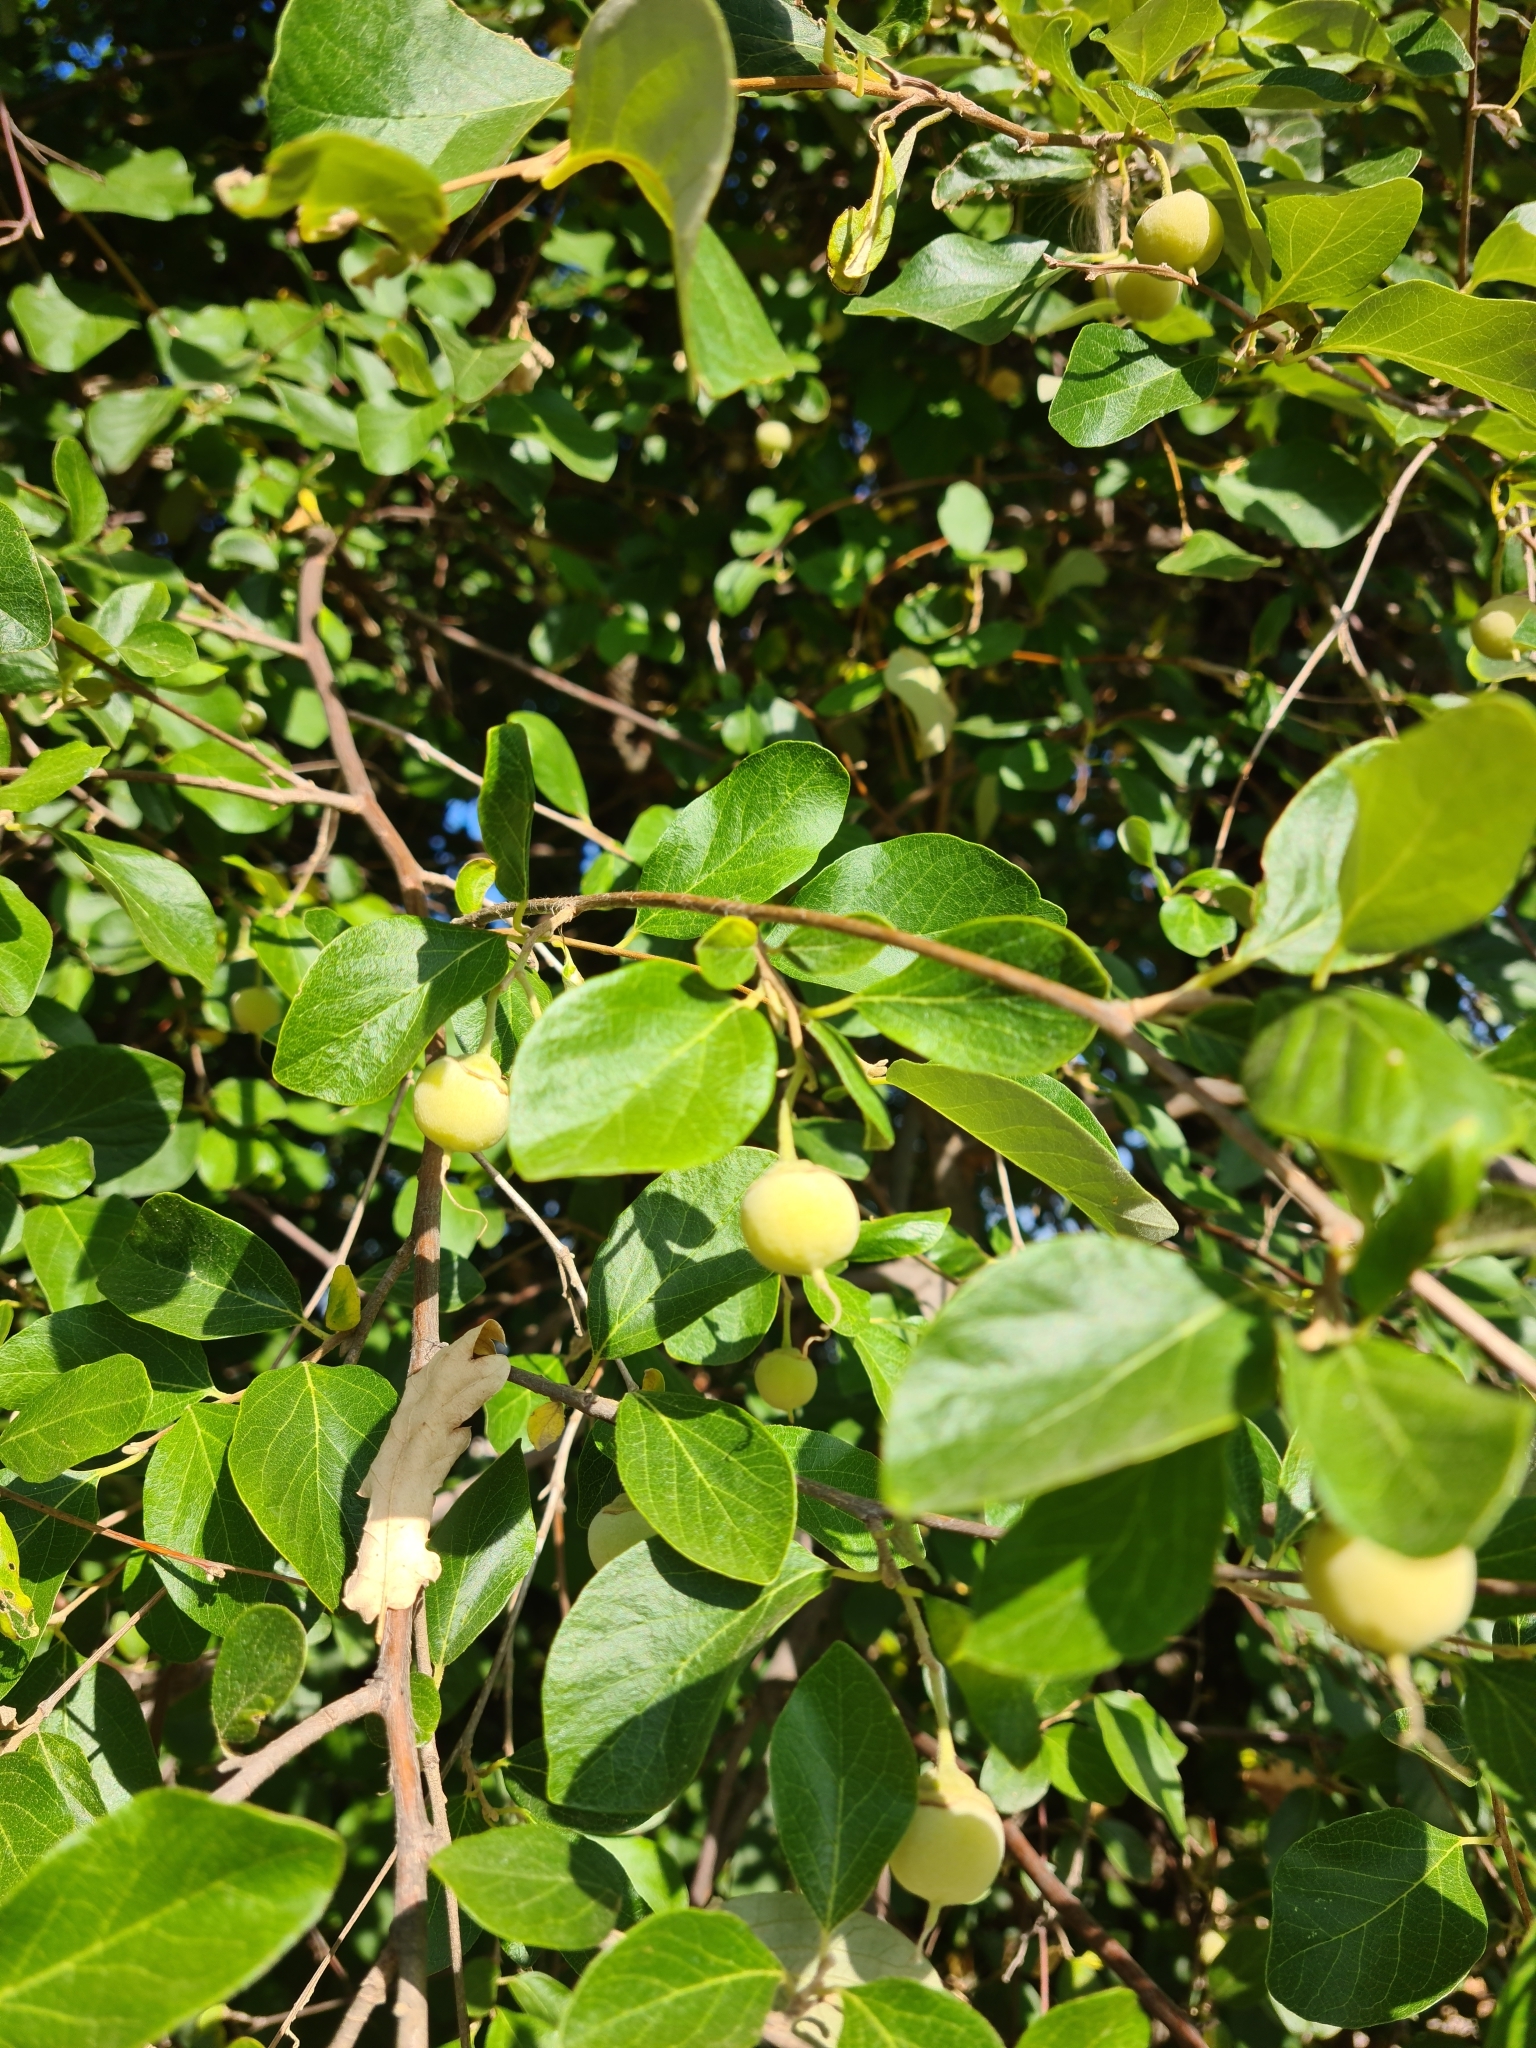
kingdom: Plantae
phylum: Tracheophyta
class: Magnoliopsida
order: Ericales
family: Styracaceae
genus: Styrax
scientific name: Styrax officinalis
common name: Storax
